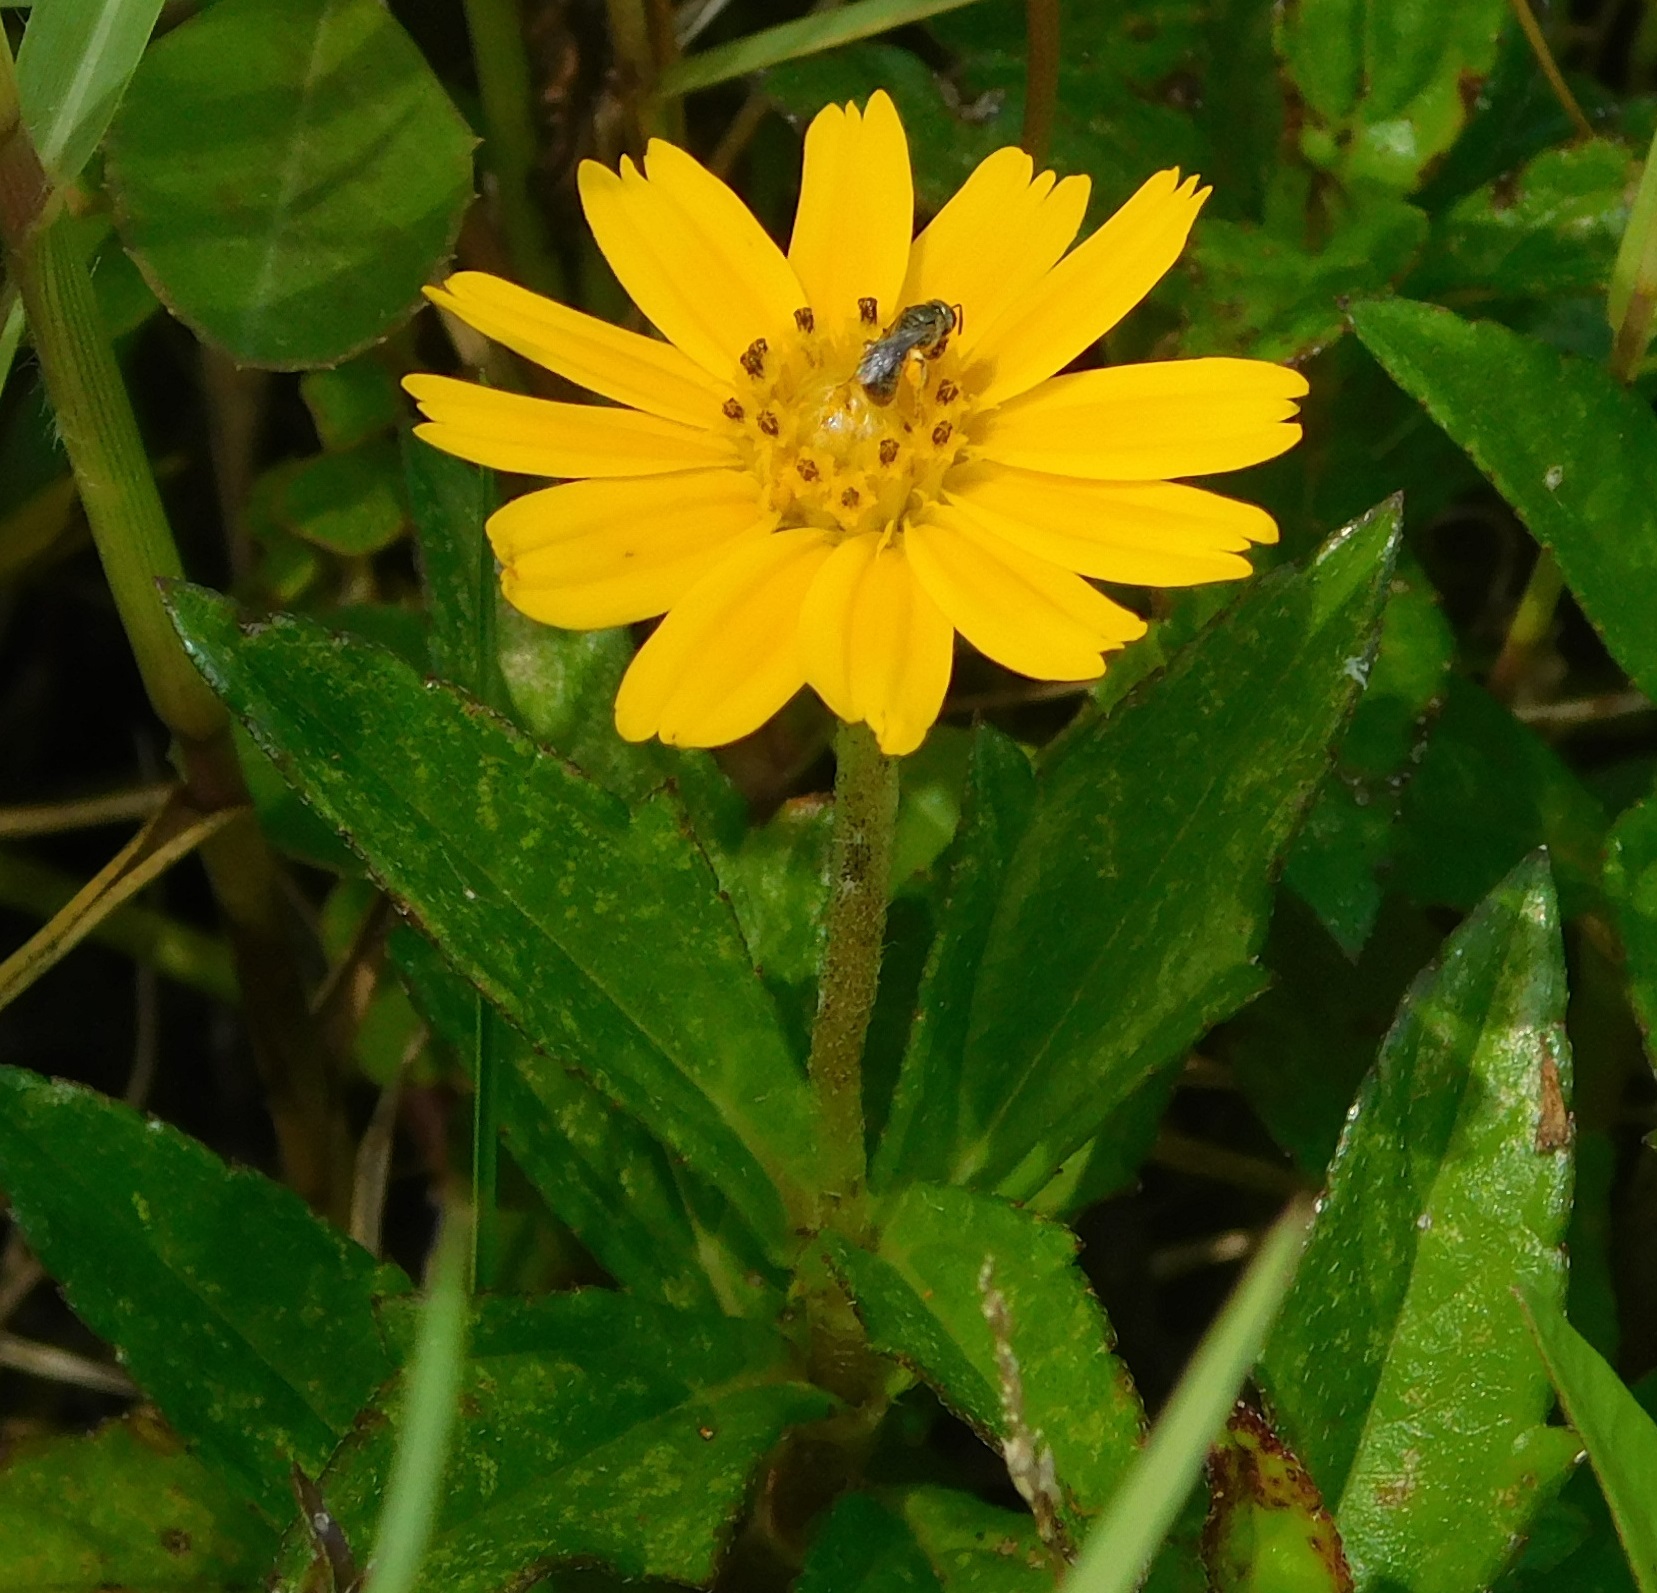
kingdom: Plantae
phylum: Tracheophyta
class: Magnoliopsida
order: Asterales
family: Asteraceae
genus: Sphagneticola
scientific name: Sphagneticola trilobata
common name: Bay biscayne creeping-oxeye
